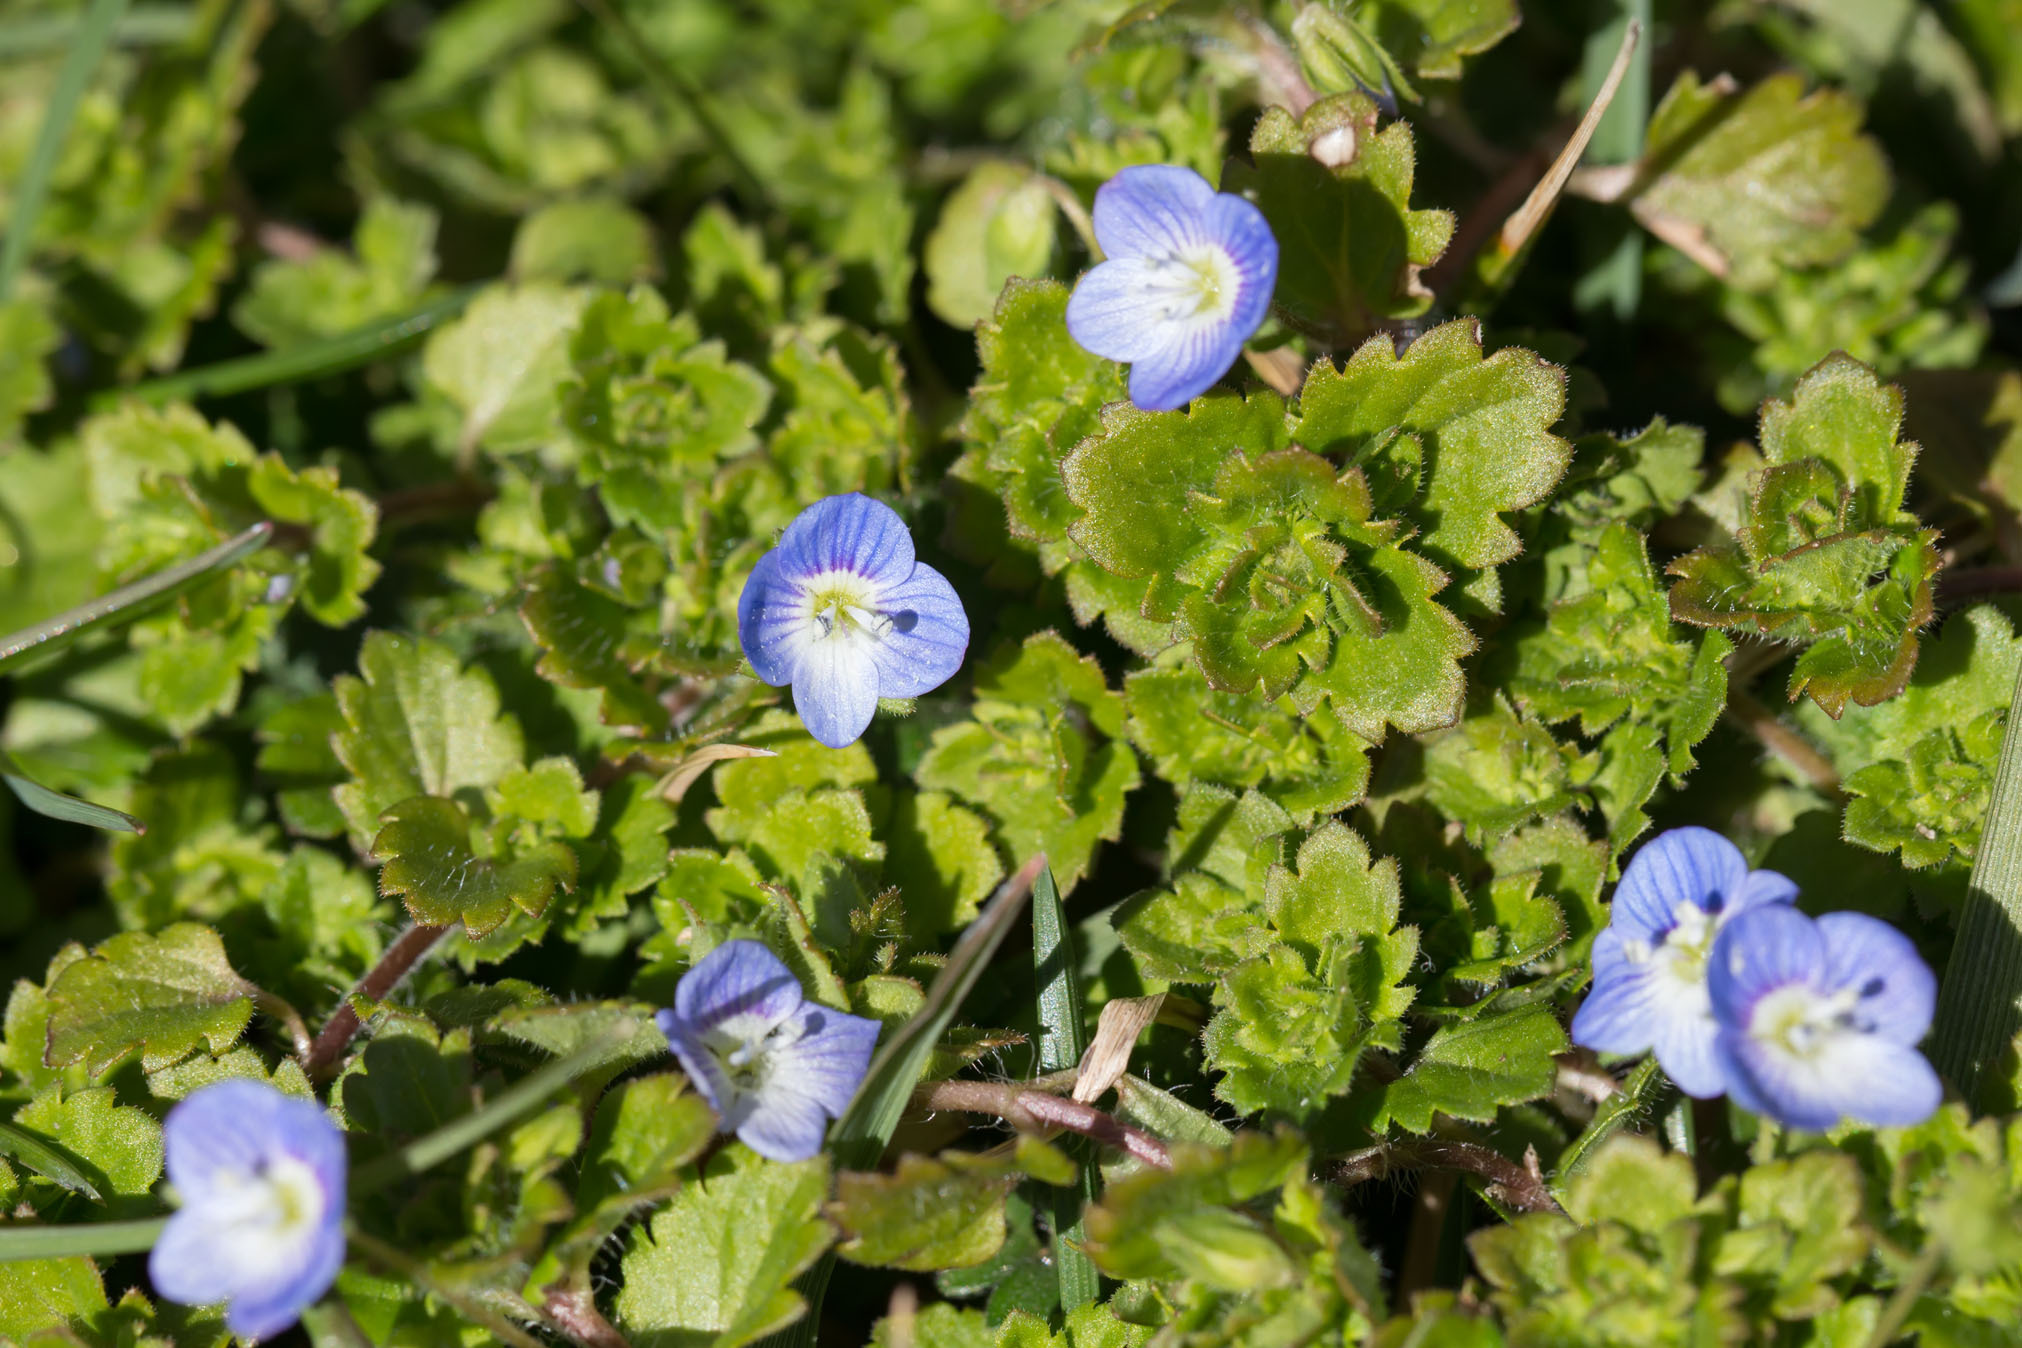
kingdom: Plantae
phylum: Tracheophyta
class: Magnoliopsida
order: Lamiales
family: Plantaginaceae
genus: Veronica
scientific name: Veronica persica
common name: Common field-speedwell
